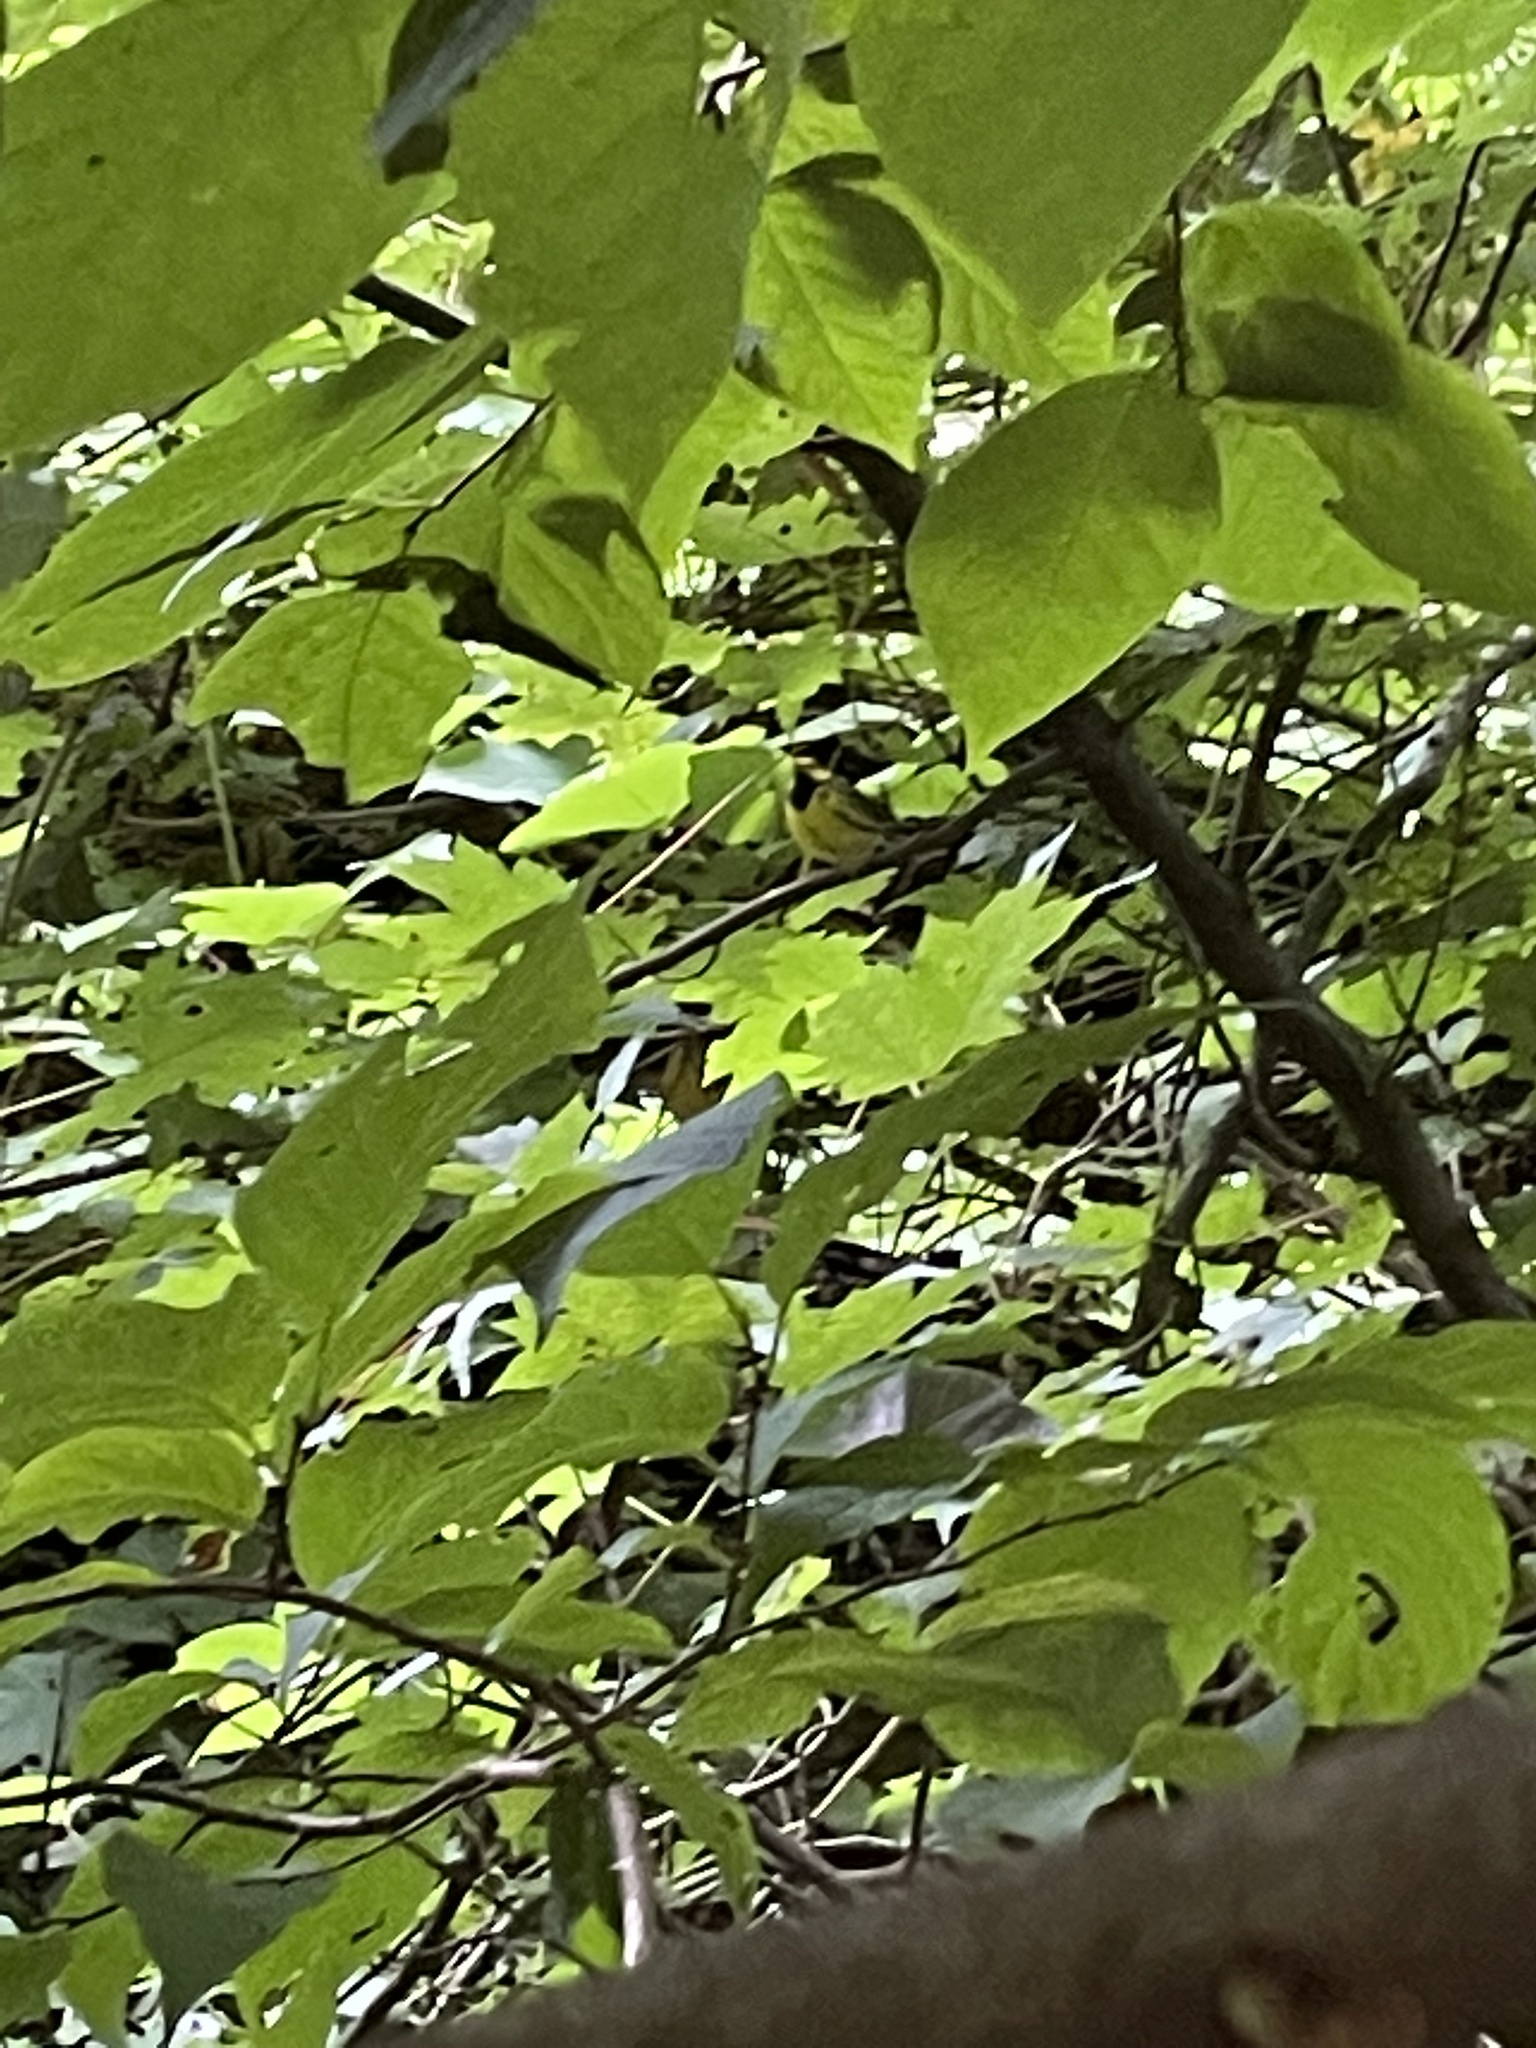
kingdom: Animalia
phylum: Chordata
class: Aves
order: Passeriformes
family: Parulidae
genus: Setophaga
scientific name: Setophaga citrina
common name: Hooded warbler
